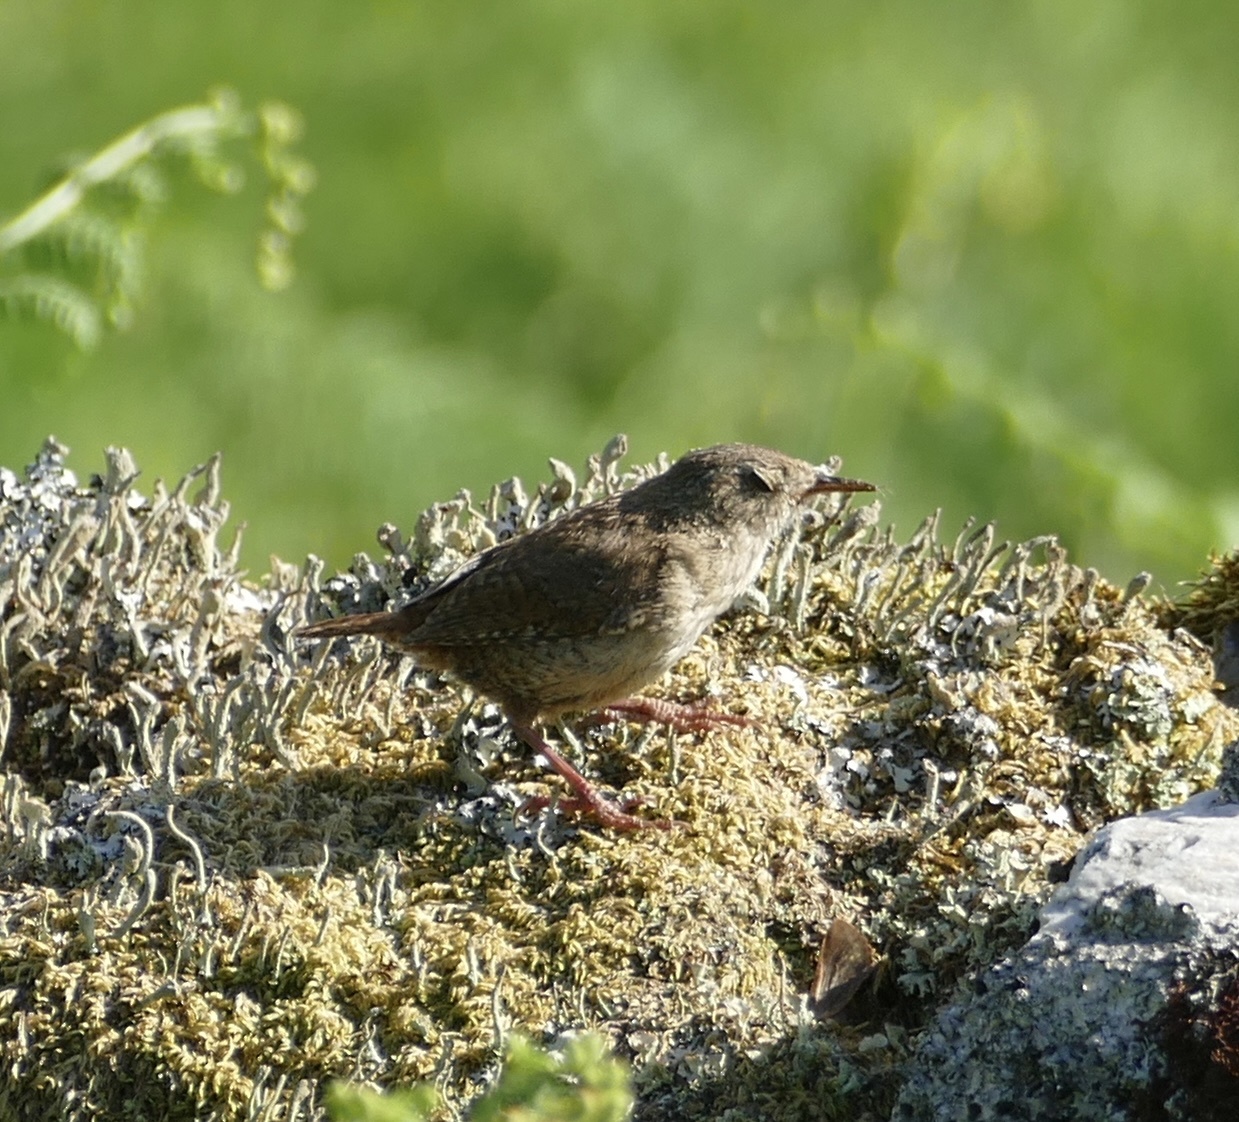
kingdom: Animalia
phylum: Chordata
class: Aves
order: Passeriformes
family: Troglodytidae
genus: Troglodytes
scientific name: Troglodytes troglodytes
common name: Eurasian wren
